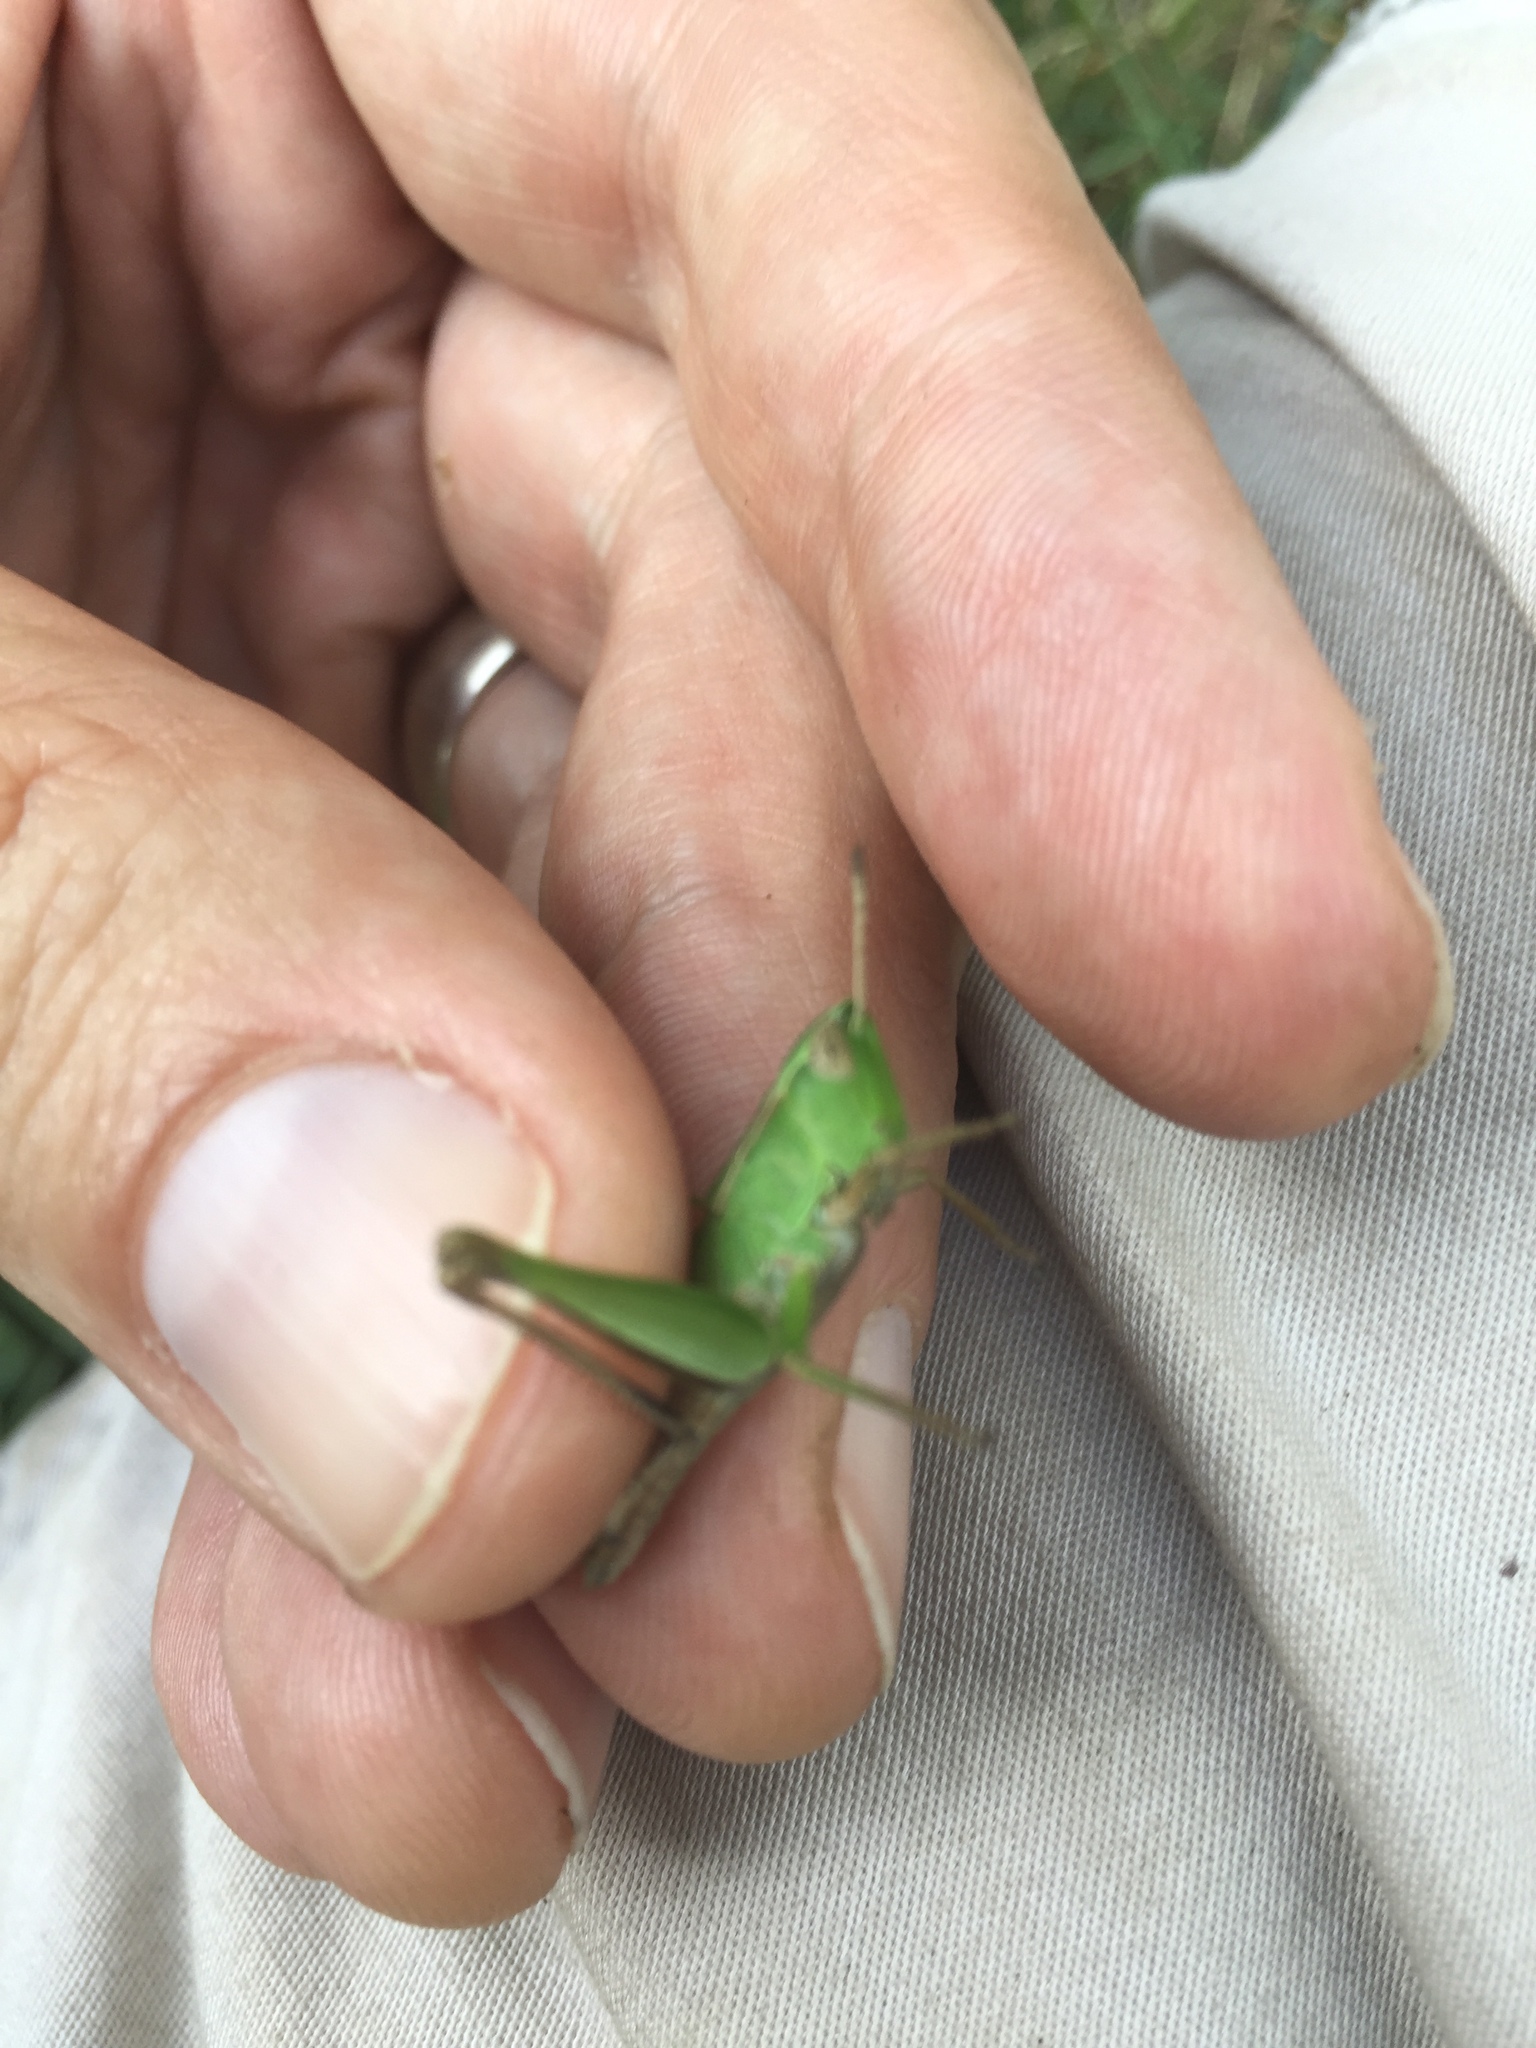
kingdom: Animalia
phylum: Arthropoda
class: Insecta
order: Orthoptera
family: Acrididae
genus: Dichromorpha
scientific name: Dichromorpha viridis
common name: Short-winged green grasshopper
